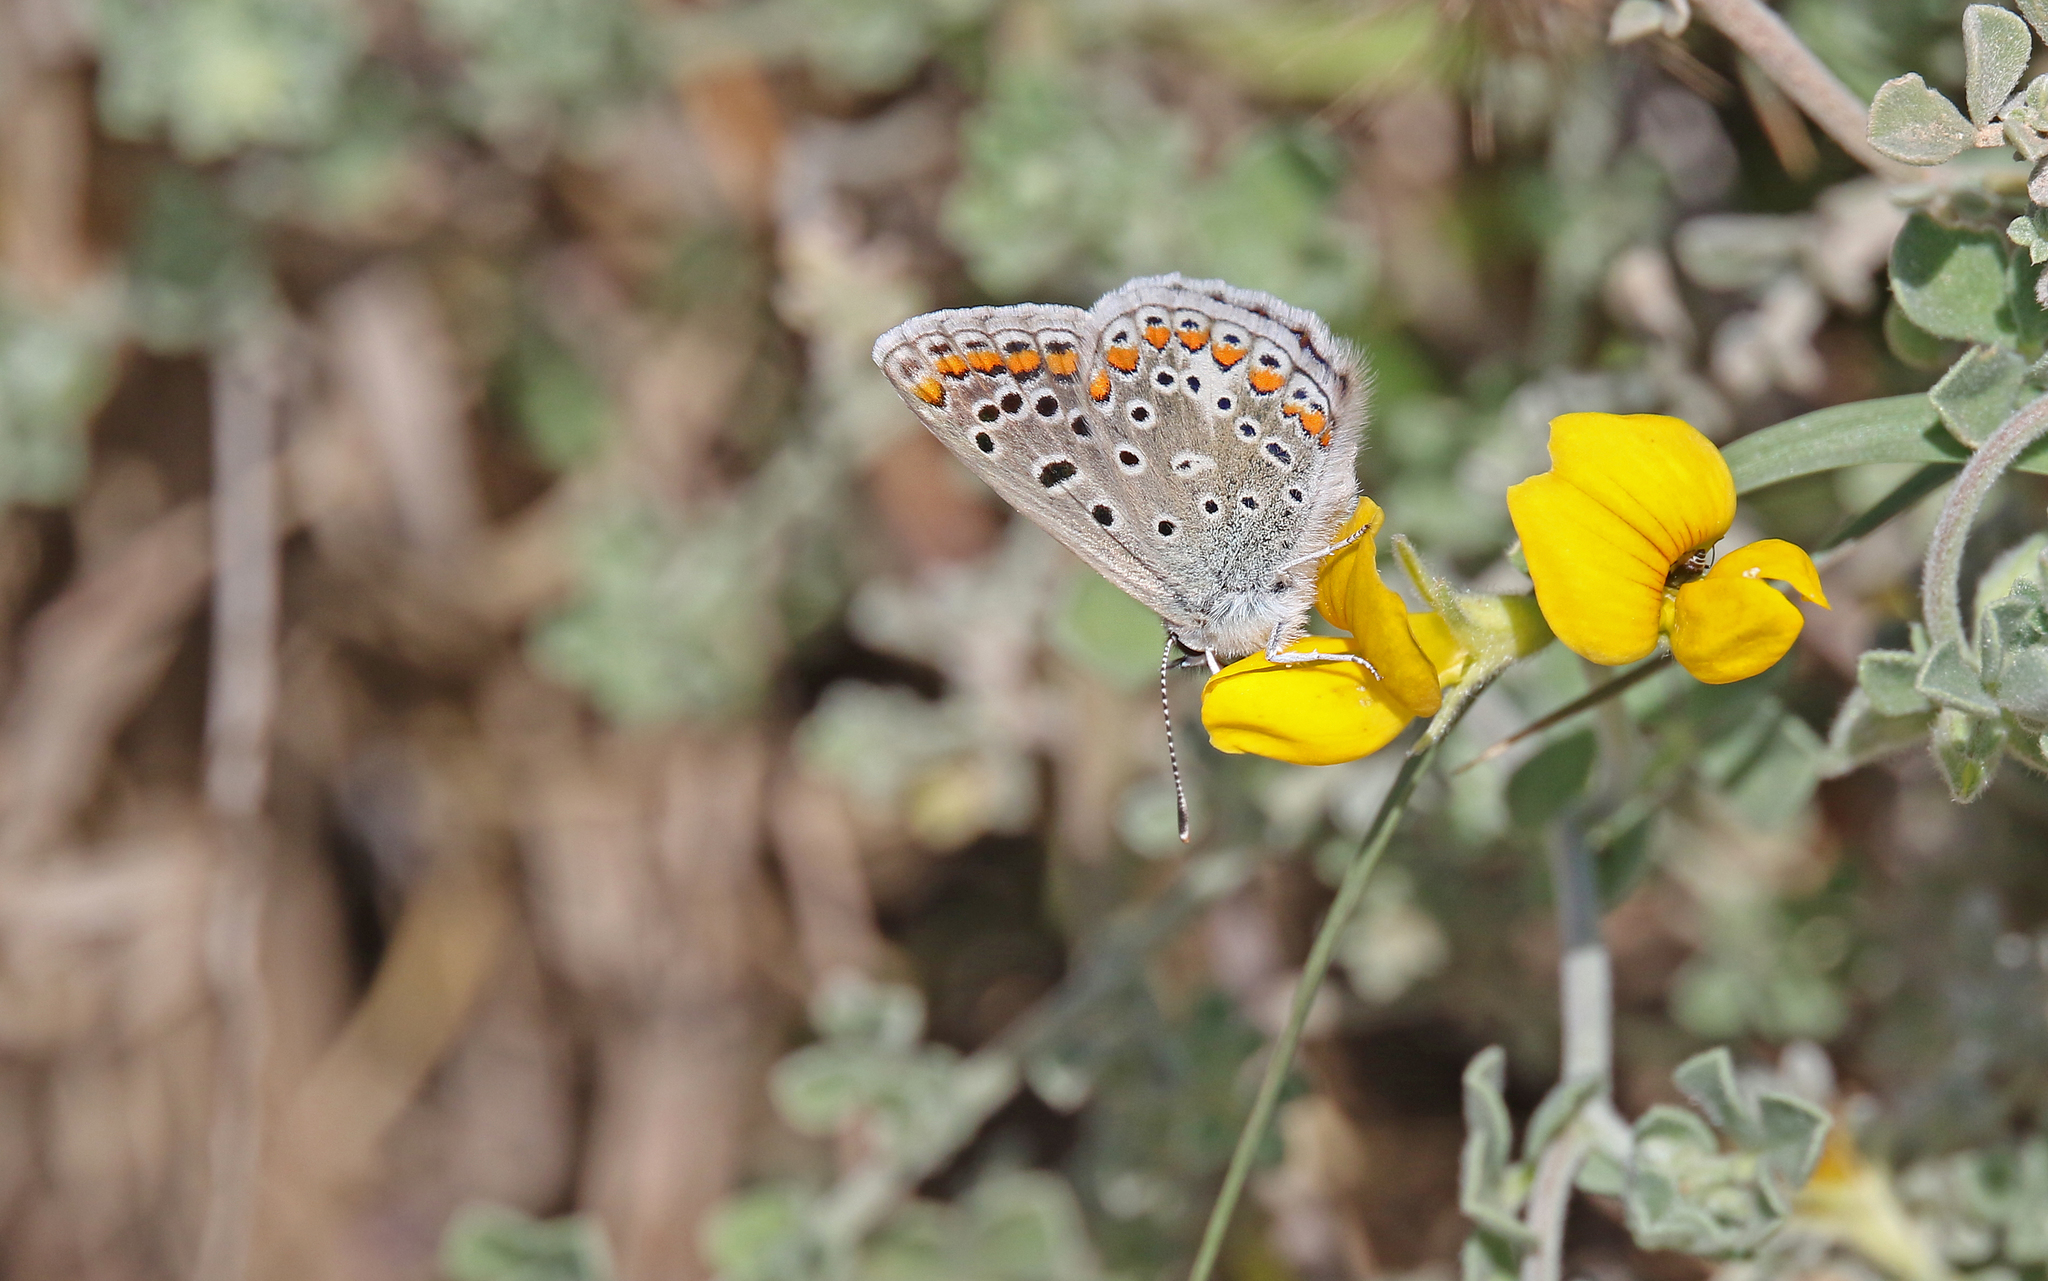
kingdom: Animalia
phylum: Arthropoda
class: Insecta
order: Lepidoptera
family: Lycaenidae
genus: Polyommatus
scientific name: Polyommatus celina
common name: Austaut's blue
